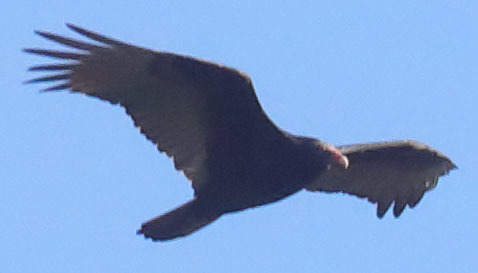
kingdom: Animalia
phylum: Chordata
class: Aves
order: Accipitriformes
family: Cathartidae
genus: Cathartes
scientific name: Cathartes aura
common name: Turkey vulture
